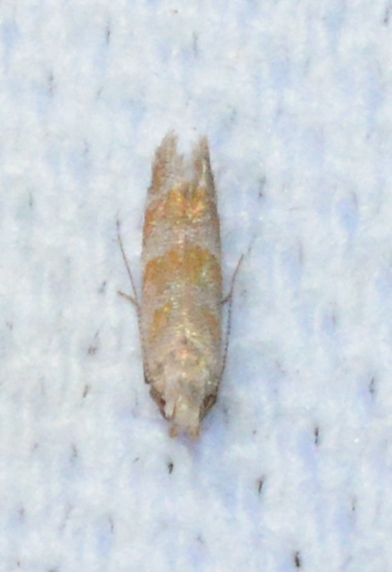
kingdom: Animalia
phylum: Arthropoda
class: Insecta
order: Lepidoptera
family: Gelechiidae
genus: Battaristis
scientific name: Battaristis vittella
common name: Orange stripe-backed moth
